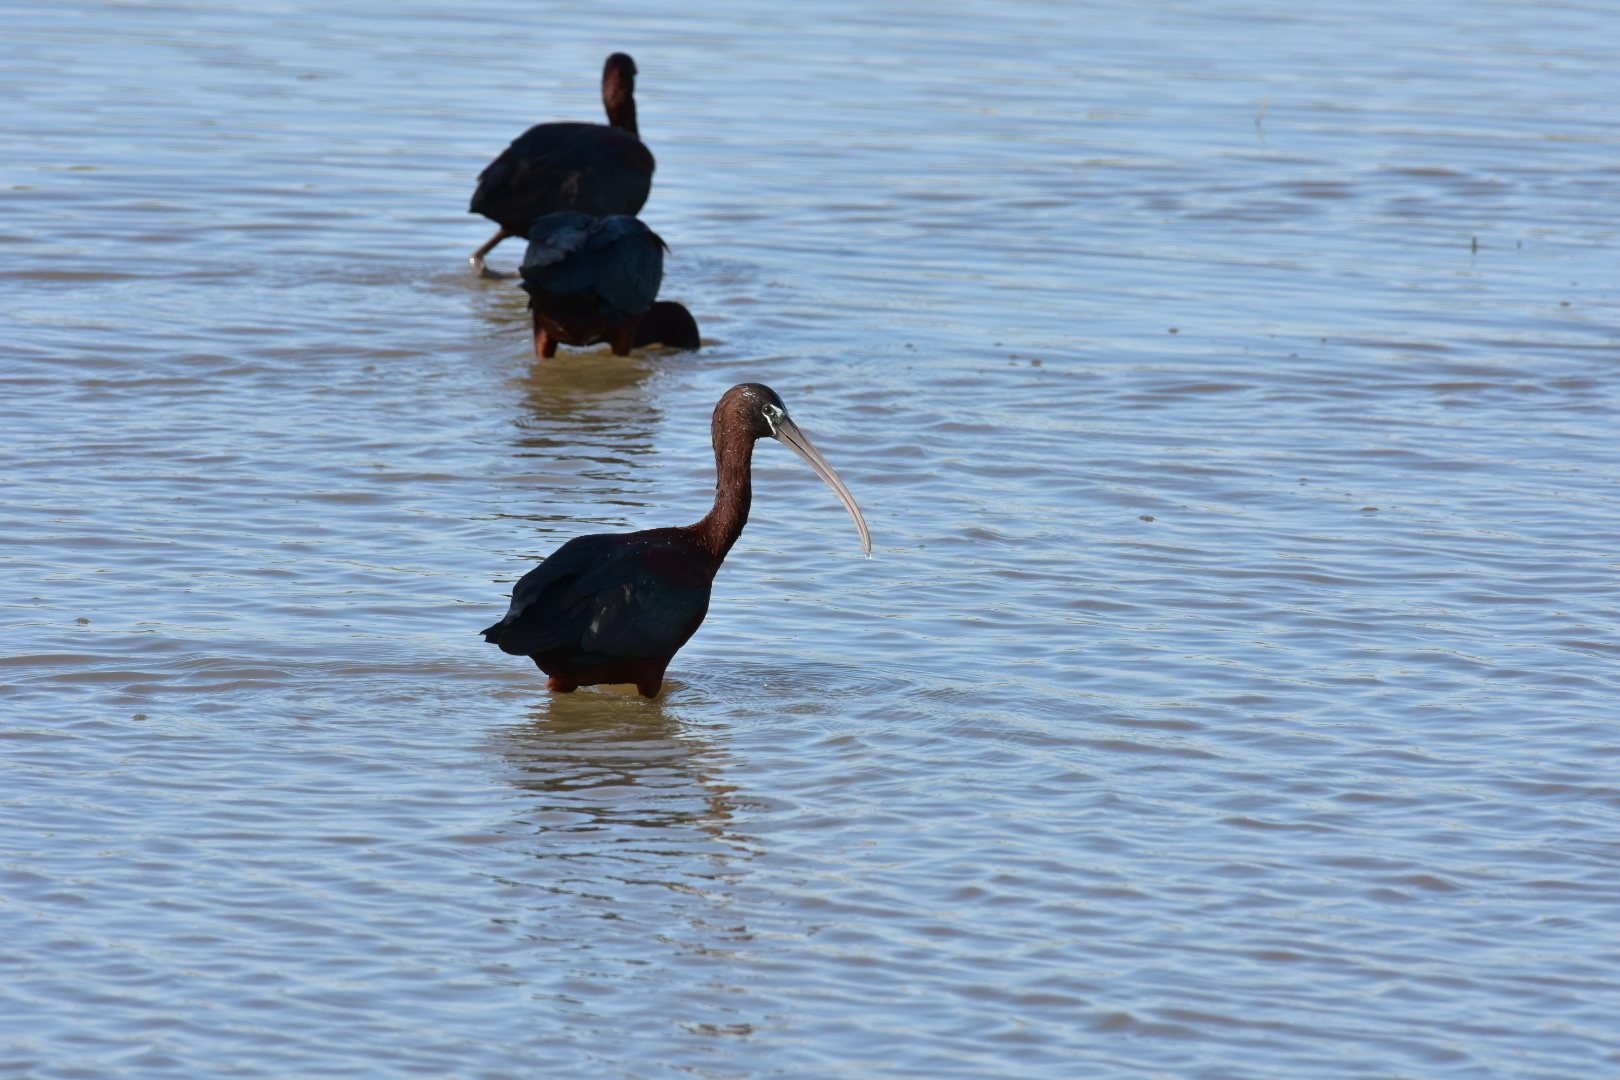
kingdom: Animalia
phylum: Chordata
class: Aves
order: Pelecaniformes
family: Threskiornithidae
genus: Plegadis
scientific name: Plegadis falcinellus
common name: Glossy ibis
